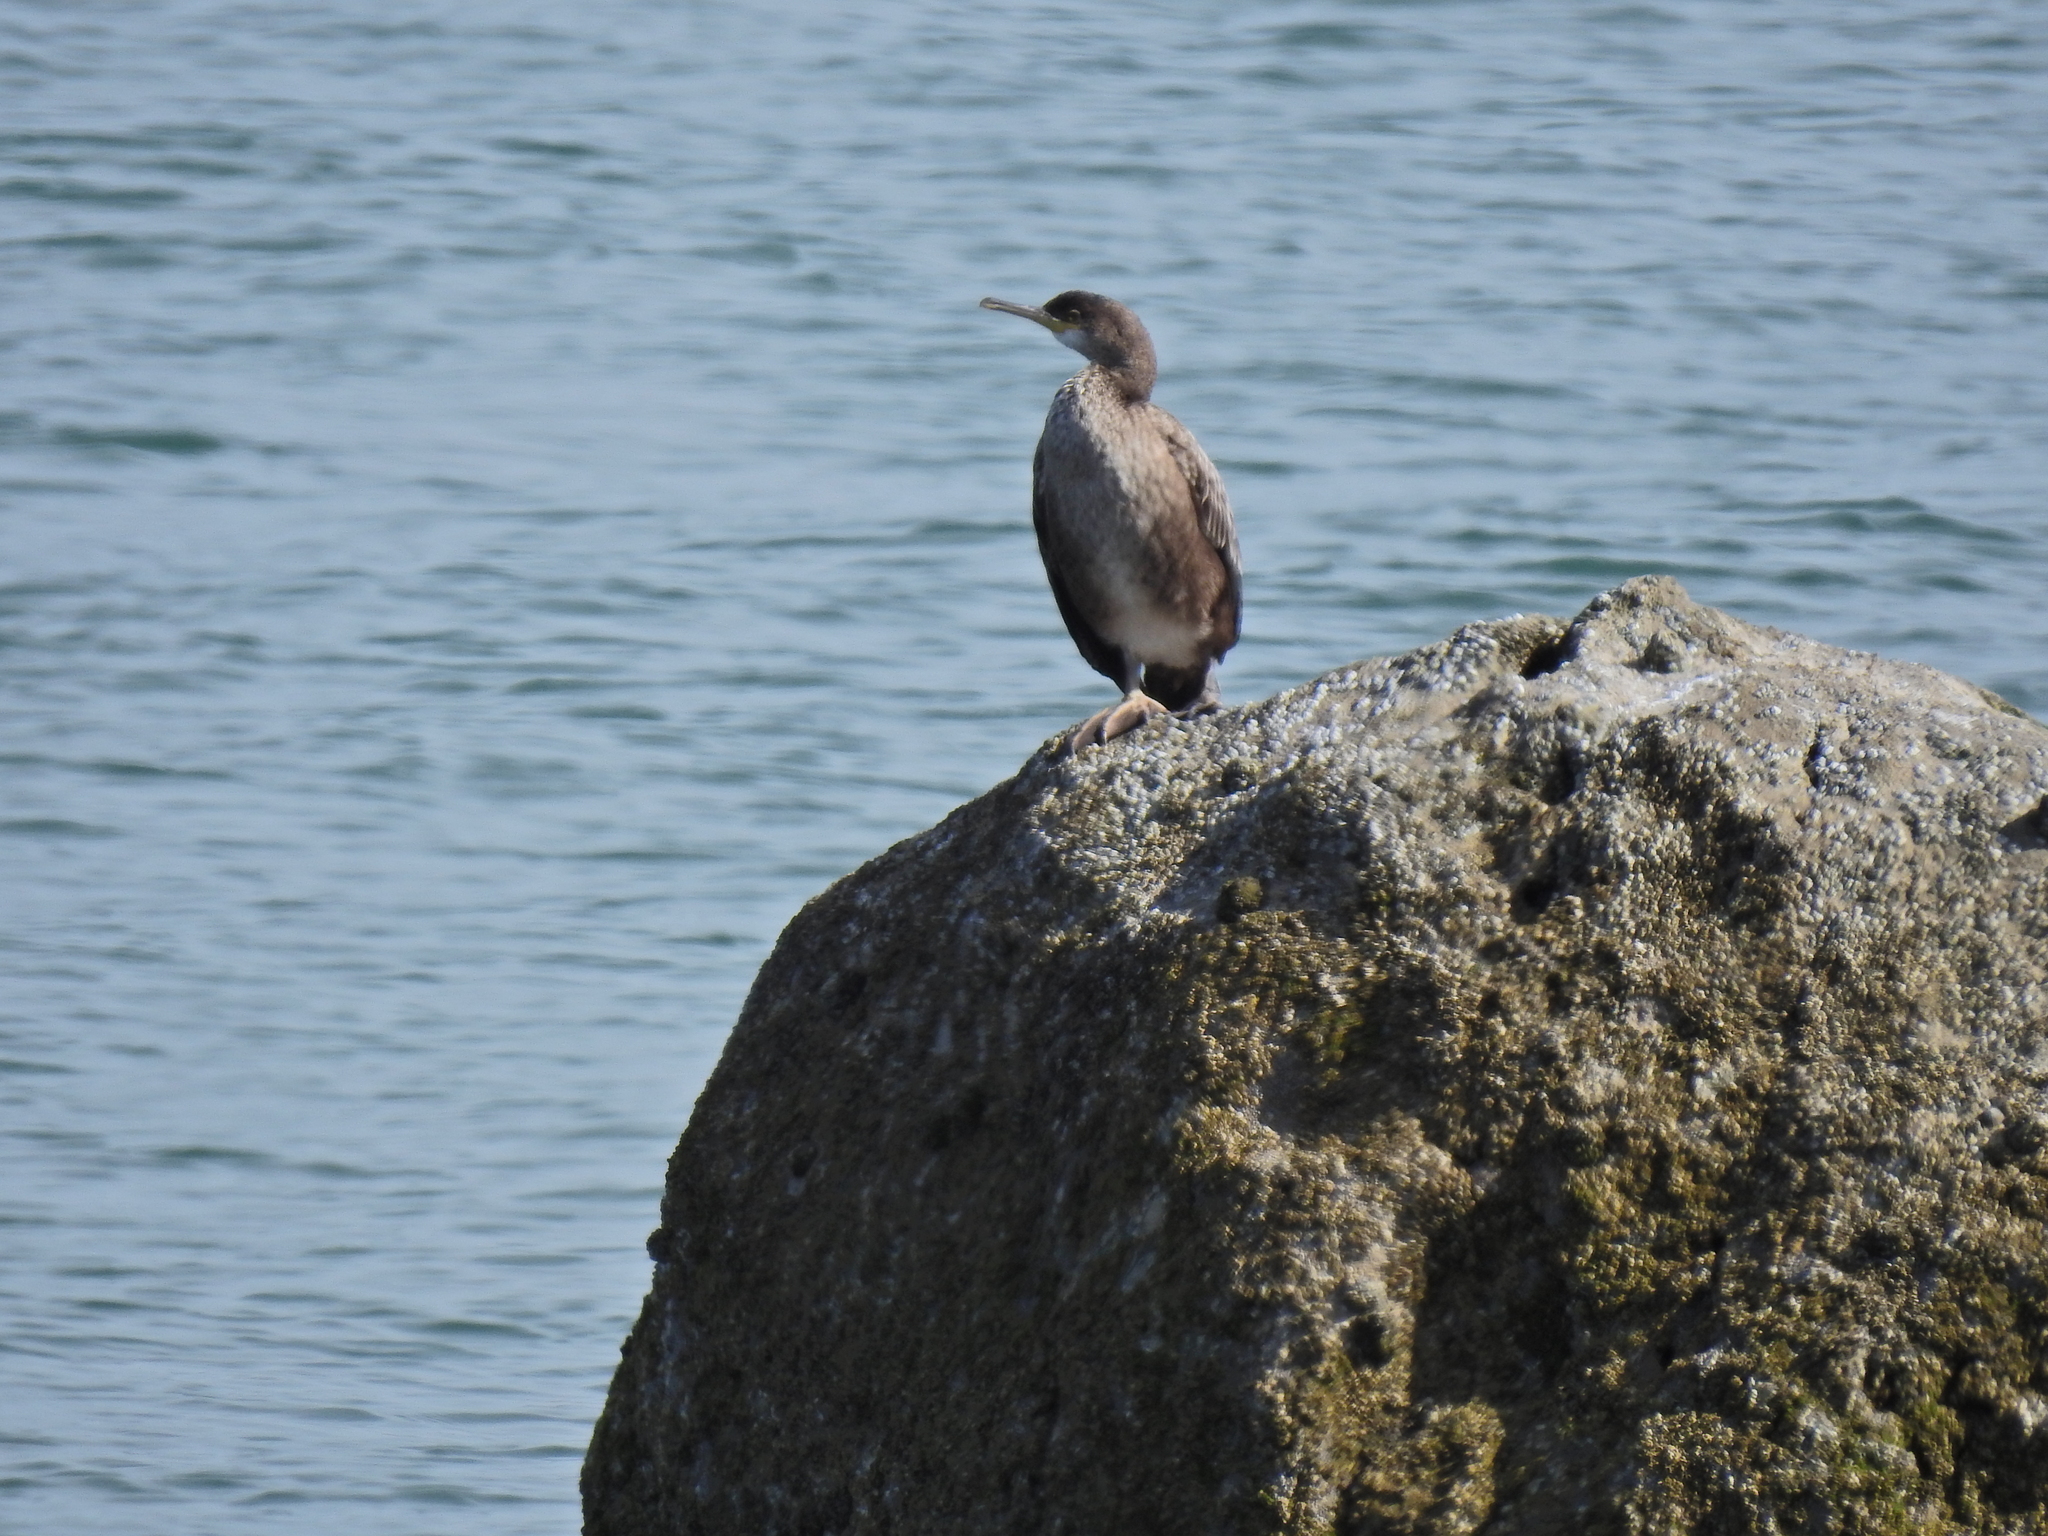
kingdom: Animalia
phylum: Chordata
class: Aves
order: Suliformes
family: Phalacrocoracidae
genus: Phalacrocorax
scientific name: Phalacrocorax aristotelis
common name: European shag
